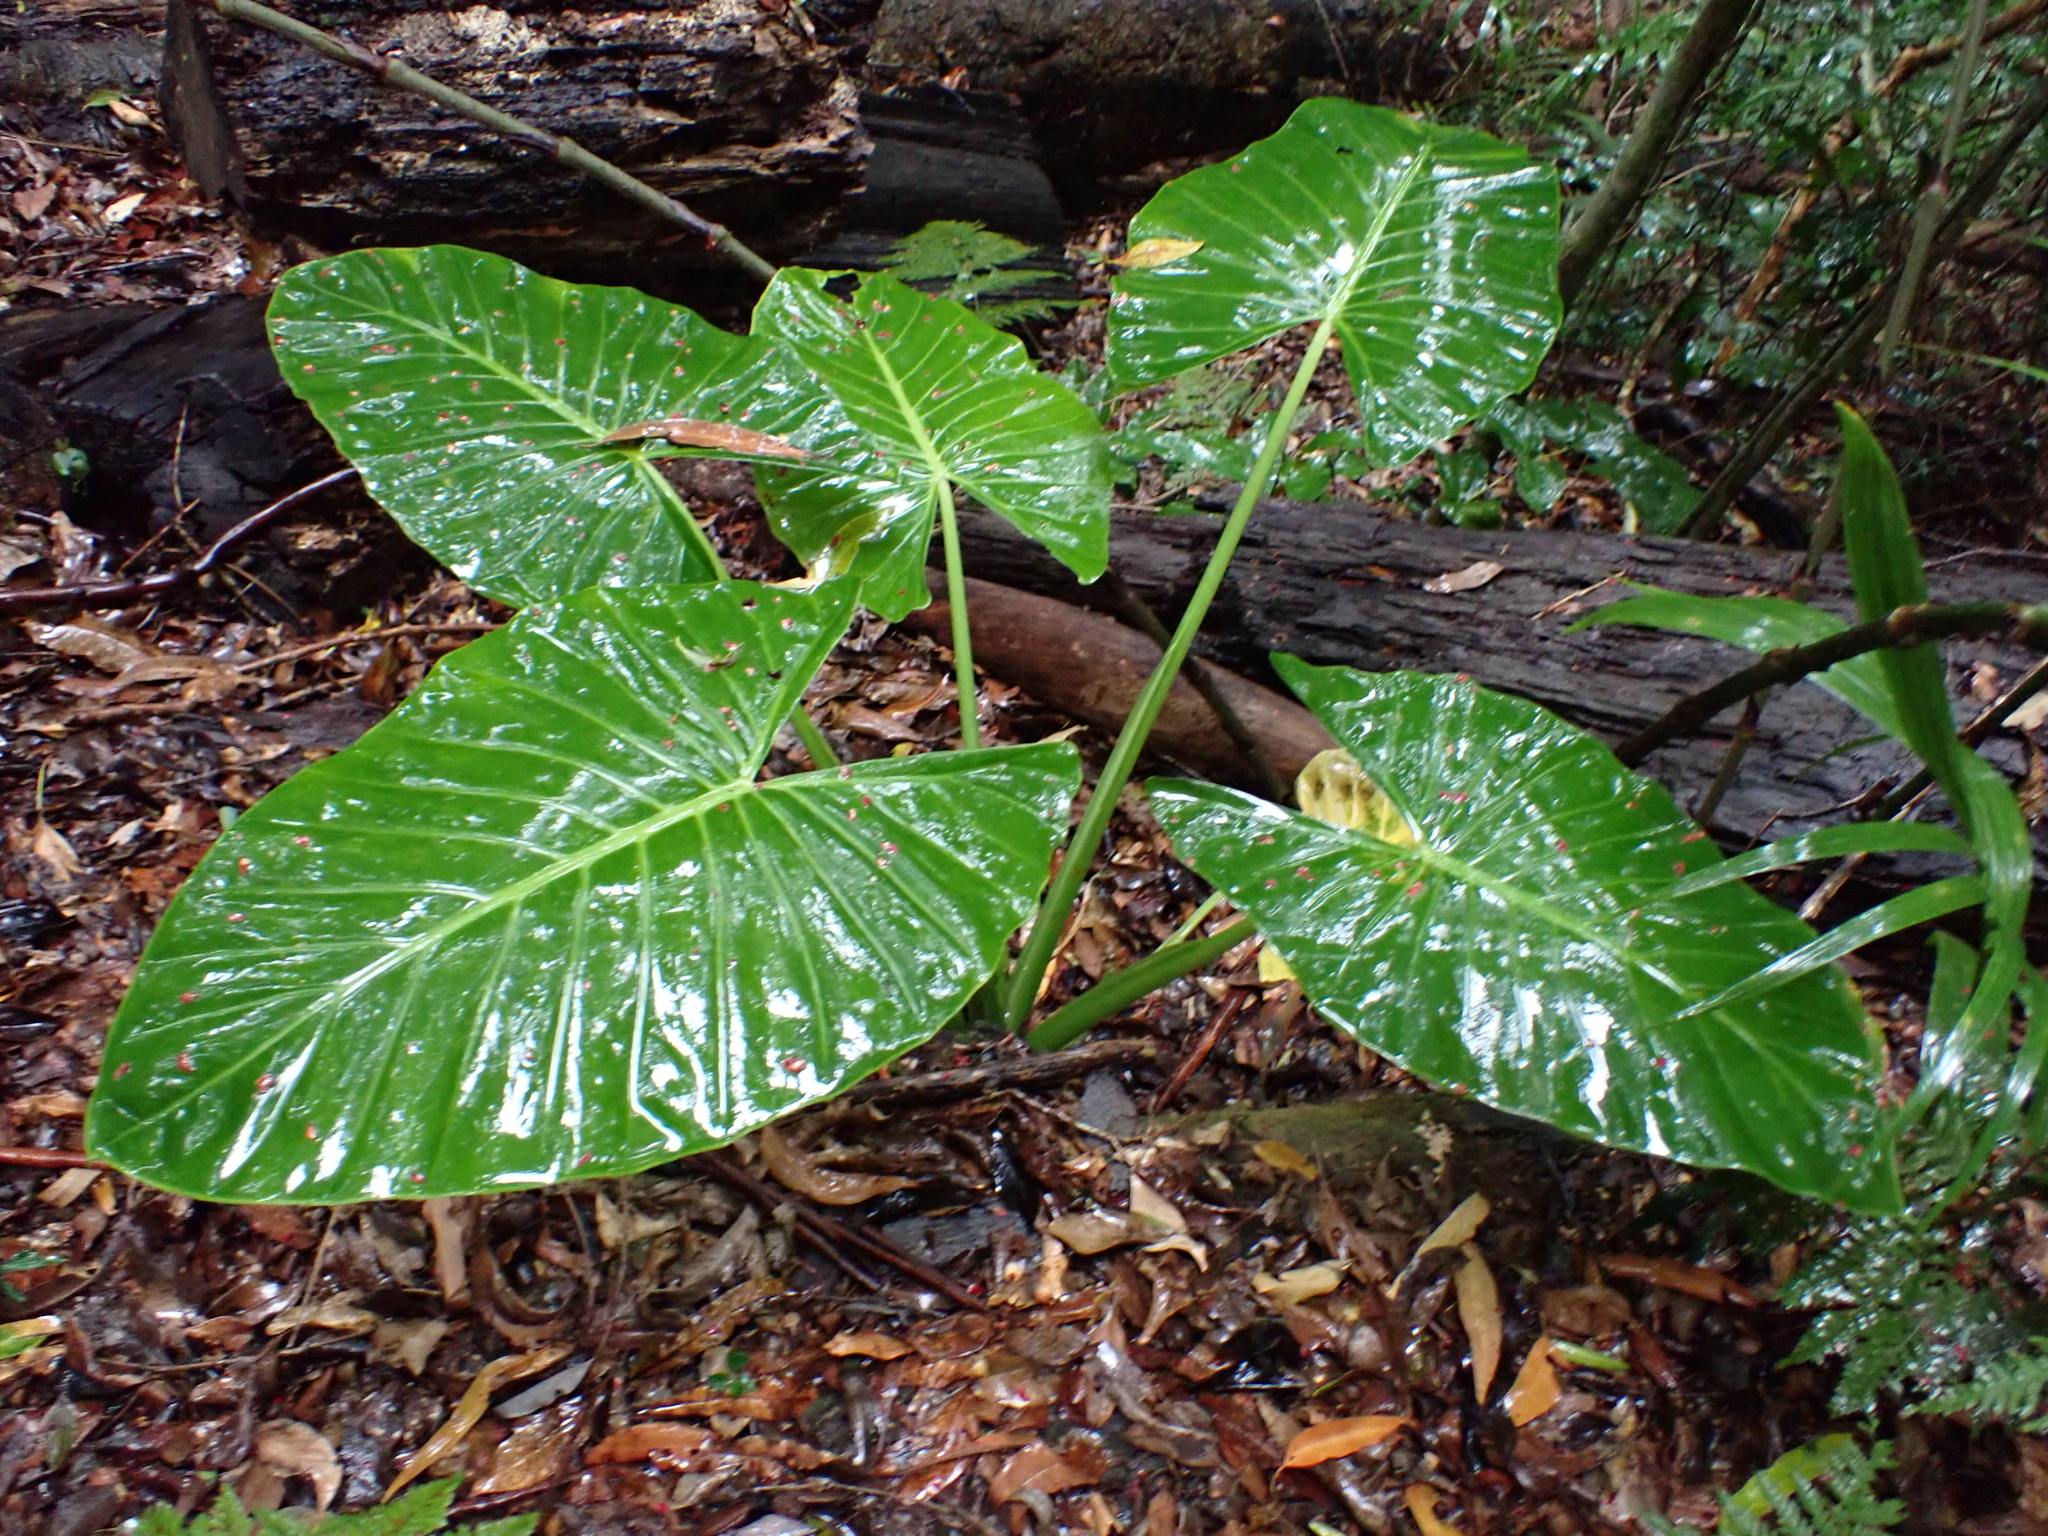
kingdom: Plantae
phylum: Tracheophyta
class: Liliopsida
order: Alismatales
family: Araceae
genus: Alocasia
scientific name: Alocasia brisbanensis
